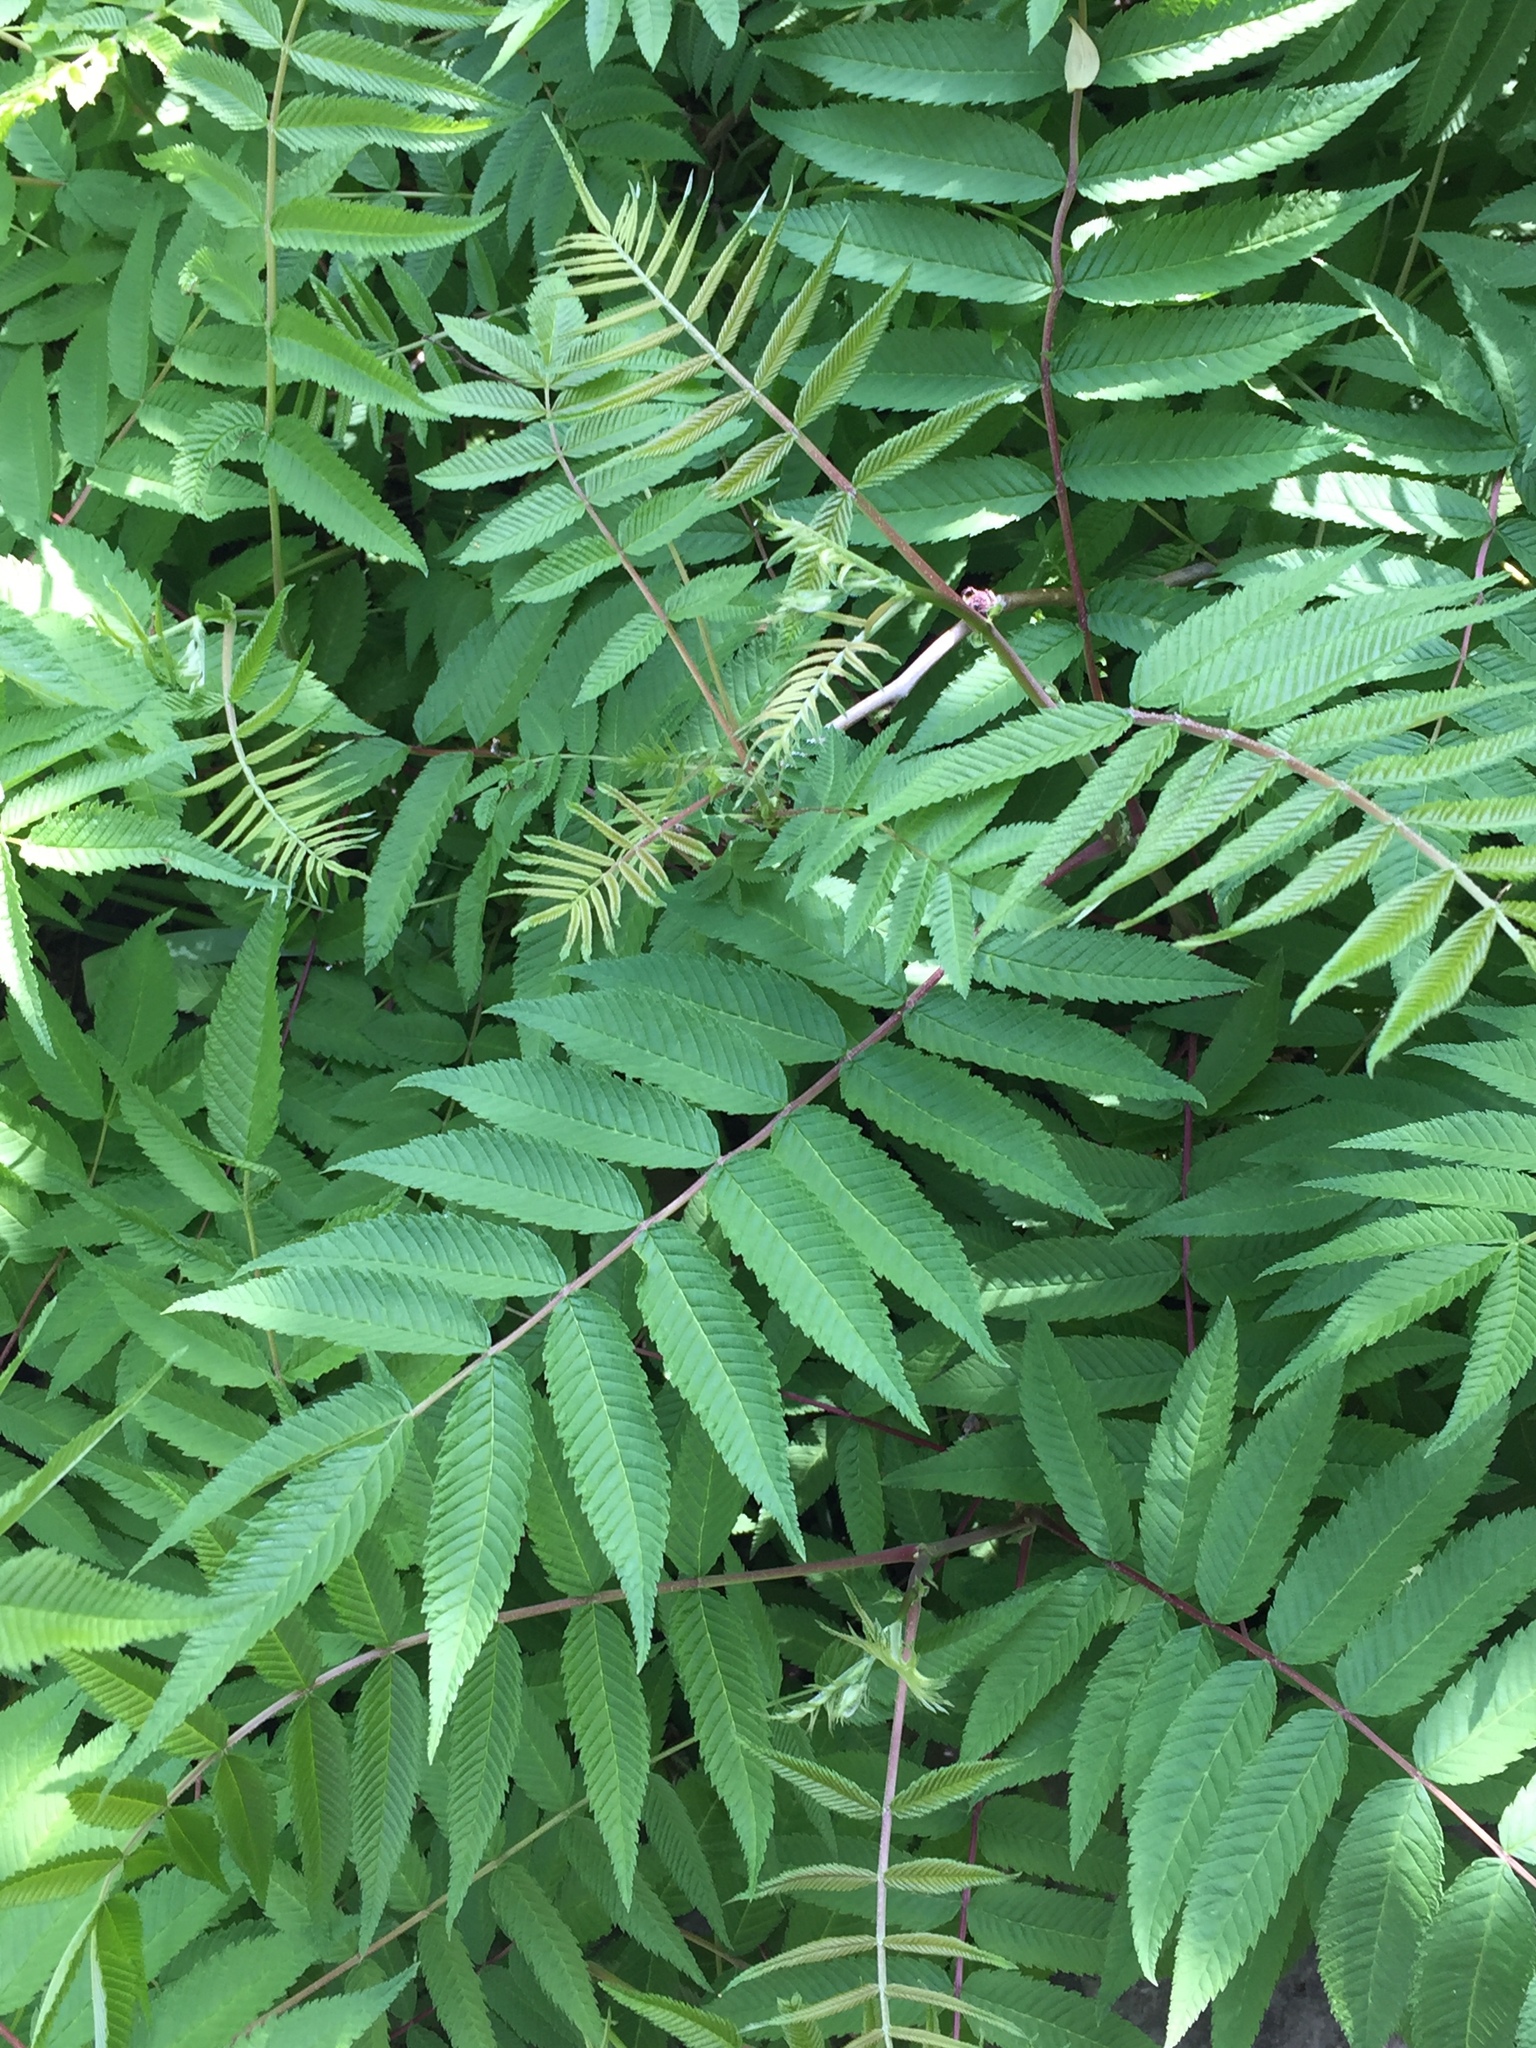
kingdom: Plantae
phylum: Tracheophyta
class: Magnoliopsida
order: Sapindales
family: Anacardiaceae
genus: Rhus
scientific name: Rhus typhina
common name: Staghorn sumac
